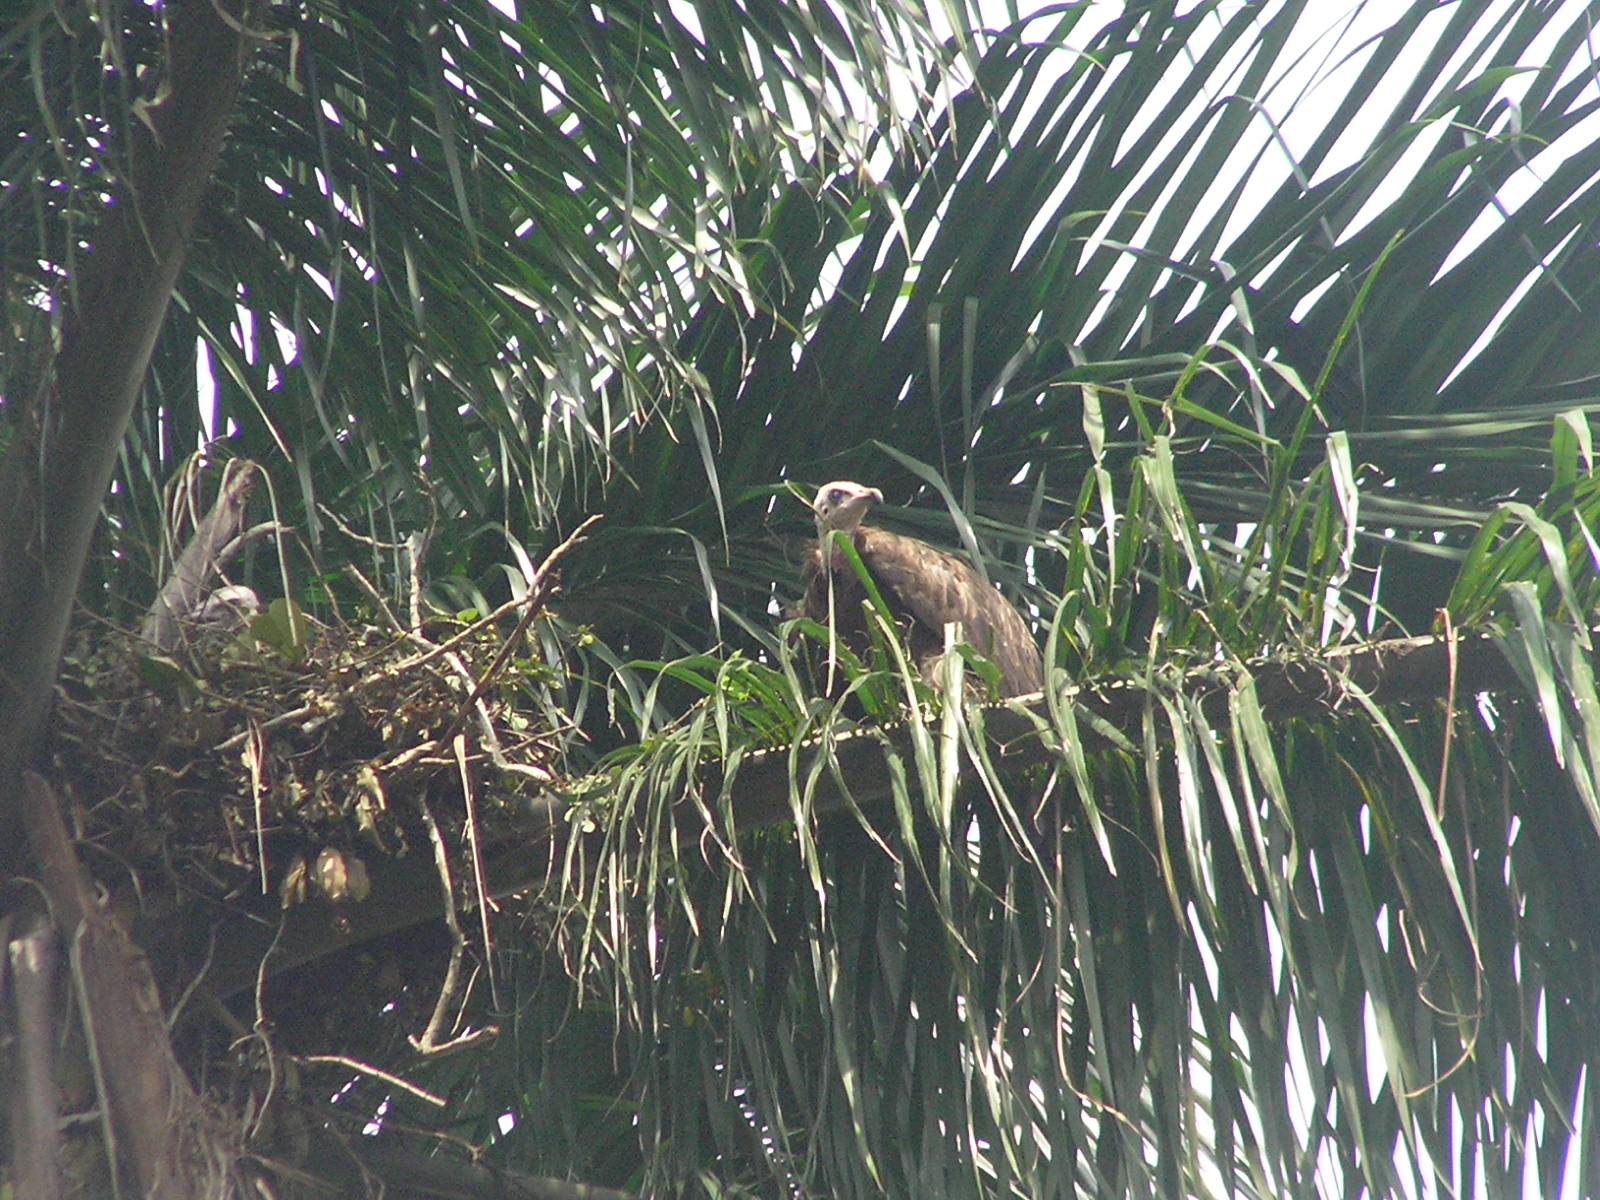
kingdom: Animalia
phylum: Chordata
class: Aves
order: Accipitriformes
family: Accipitridae
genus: Necrosyrtes
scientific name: Necrosyrtes monachus
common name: Hooded vulture
